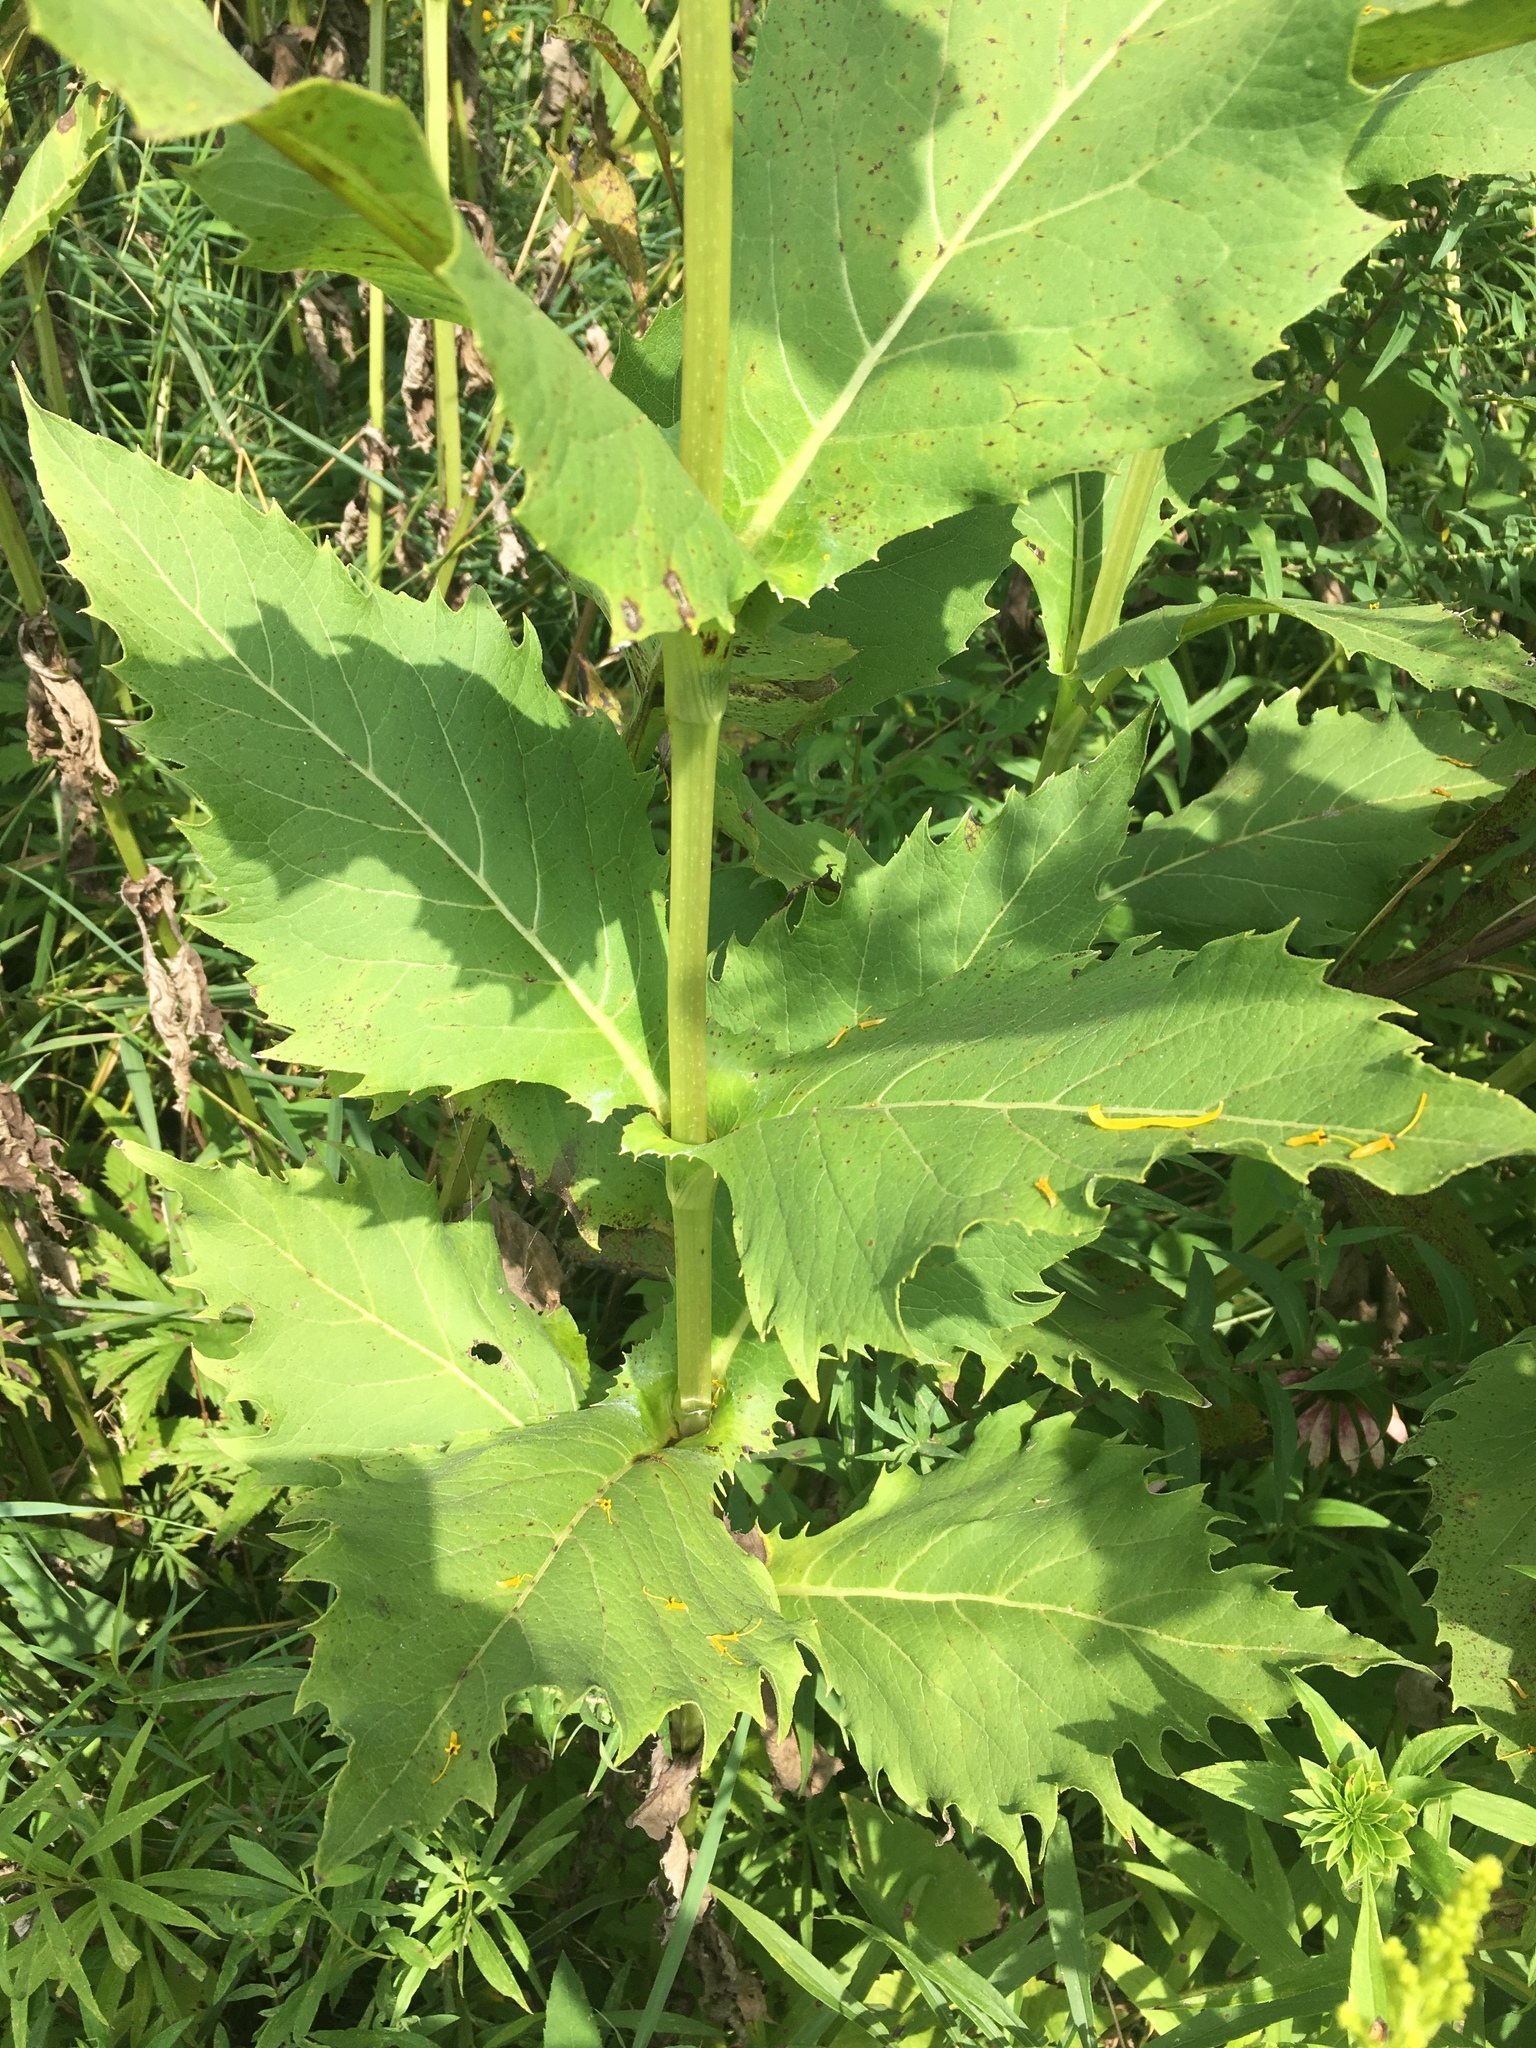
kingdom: Plantae
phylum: Tracheophyta
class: Magnoliopsida
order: Asterales
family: Asteraceae
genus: Silphium
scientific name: Silphium perfoliatum
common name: Cup-plant
